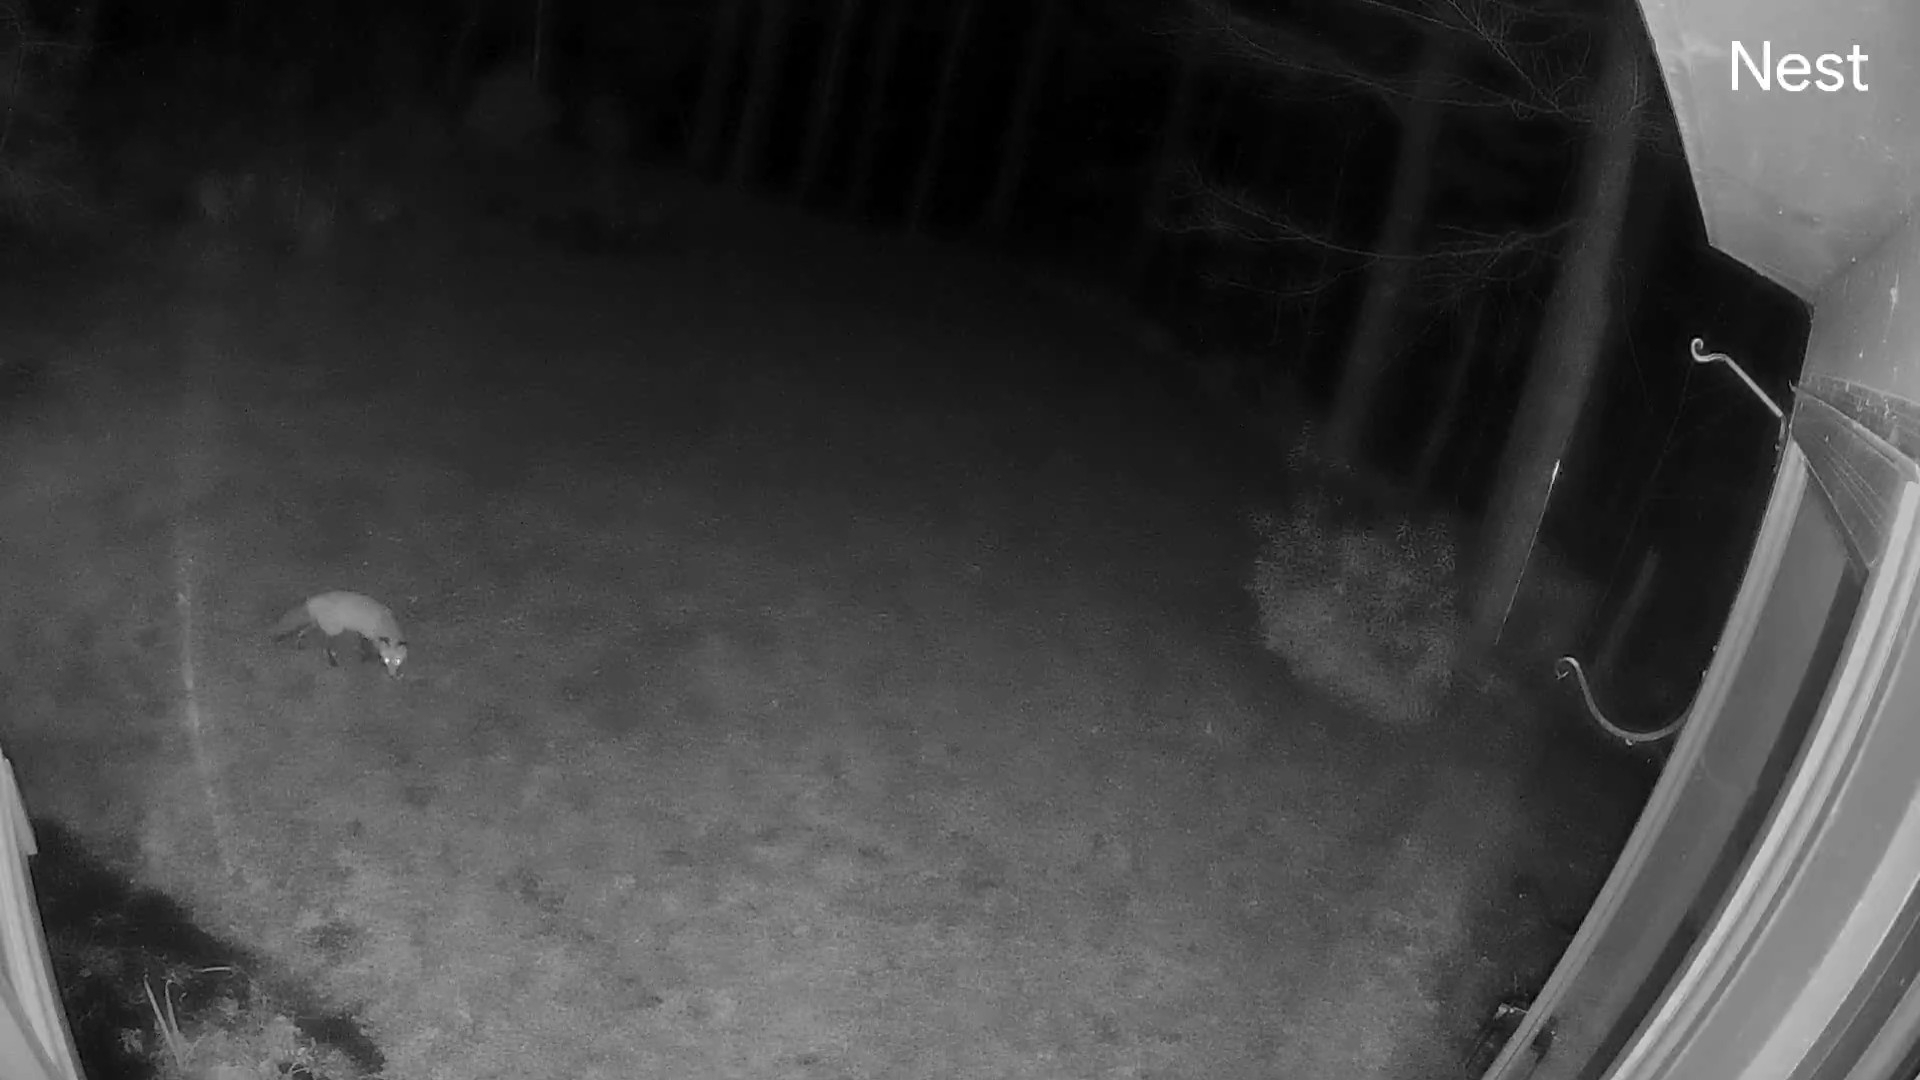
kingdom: Animalia
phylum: Chordata
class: Mammalia
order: Carnivora
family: Canidae
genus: Vulpes
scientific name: Vulpes vulpes
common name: Red fox
